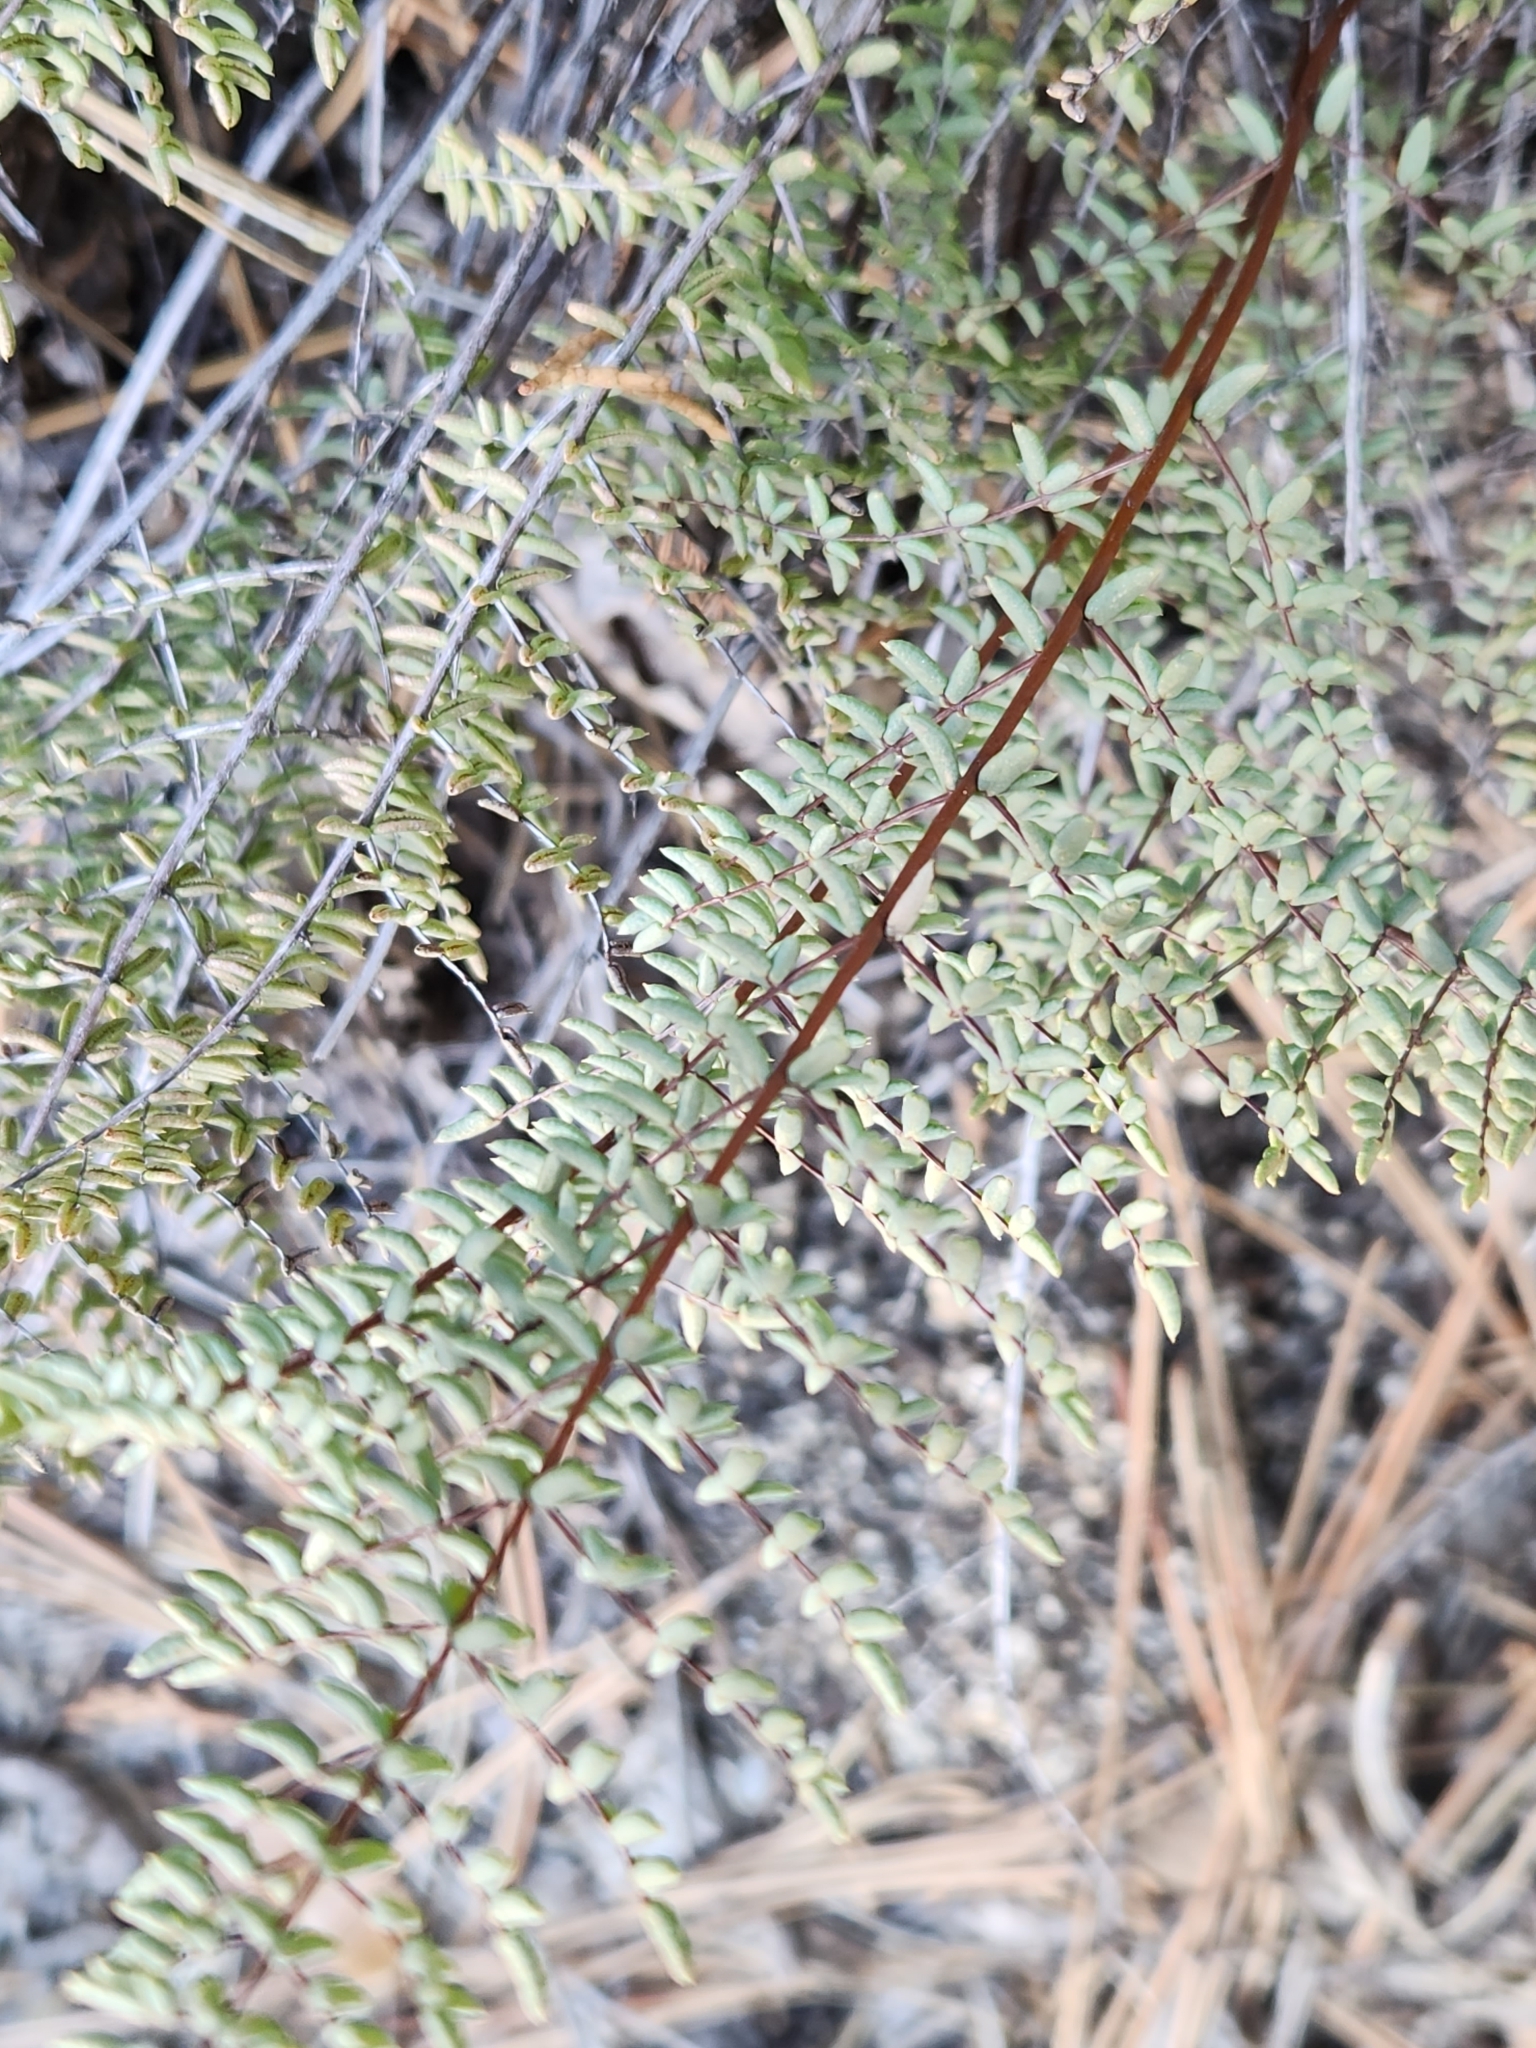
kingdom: Plantae
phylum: Tracheophyta
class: Polypodiopsida
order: Polypodiales
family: Pteridaceae
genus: Pellaea
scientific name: Pellaea mucronata
